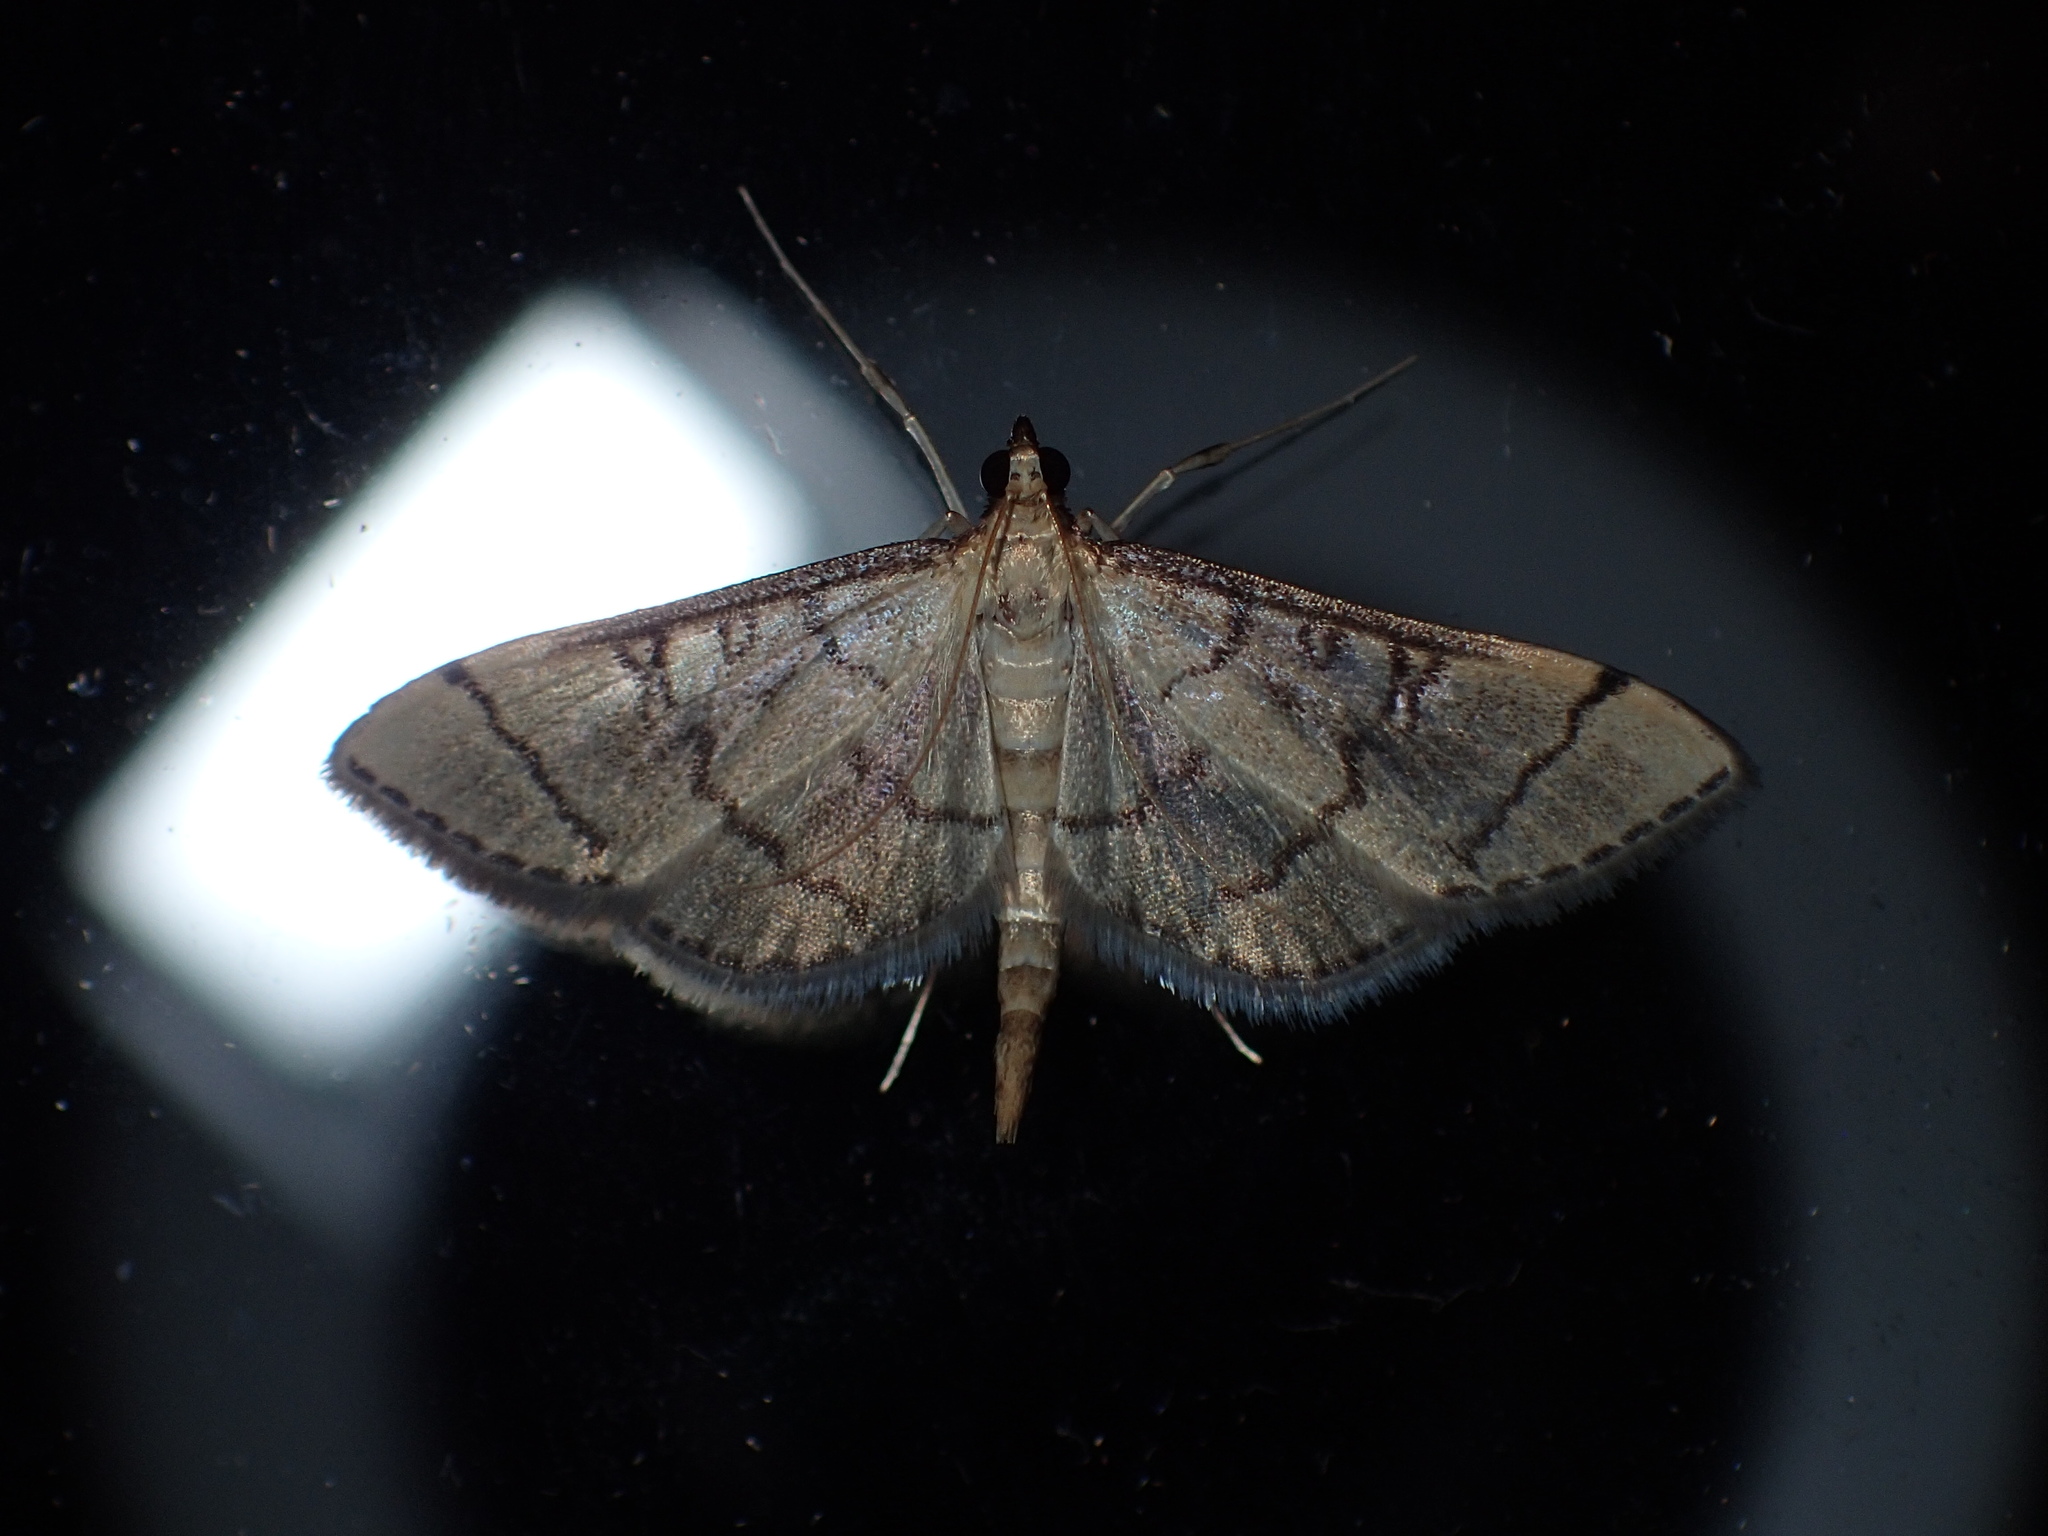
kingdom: Animalia
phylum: Arthropoda
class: Insecta
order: Lepidoptera
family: Crambidae
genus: Lamprosema
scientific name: Lamprosema Blepharomastix ranalis
